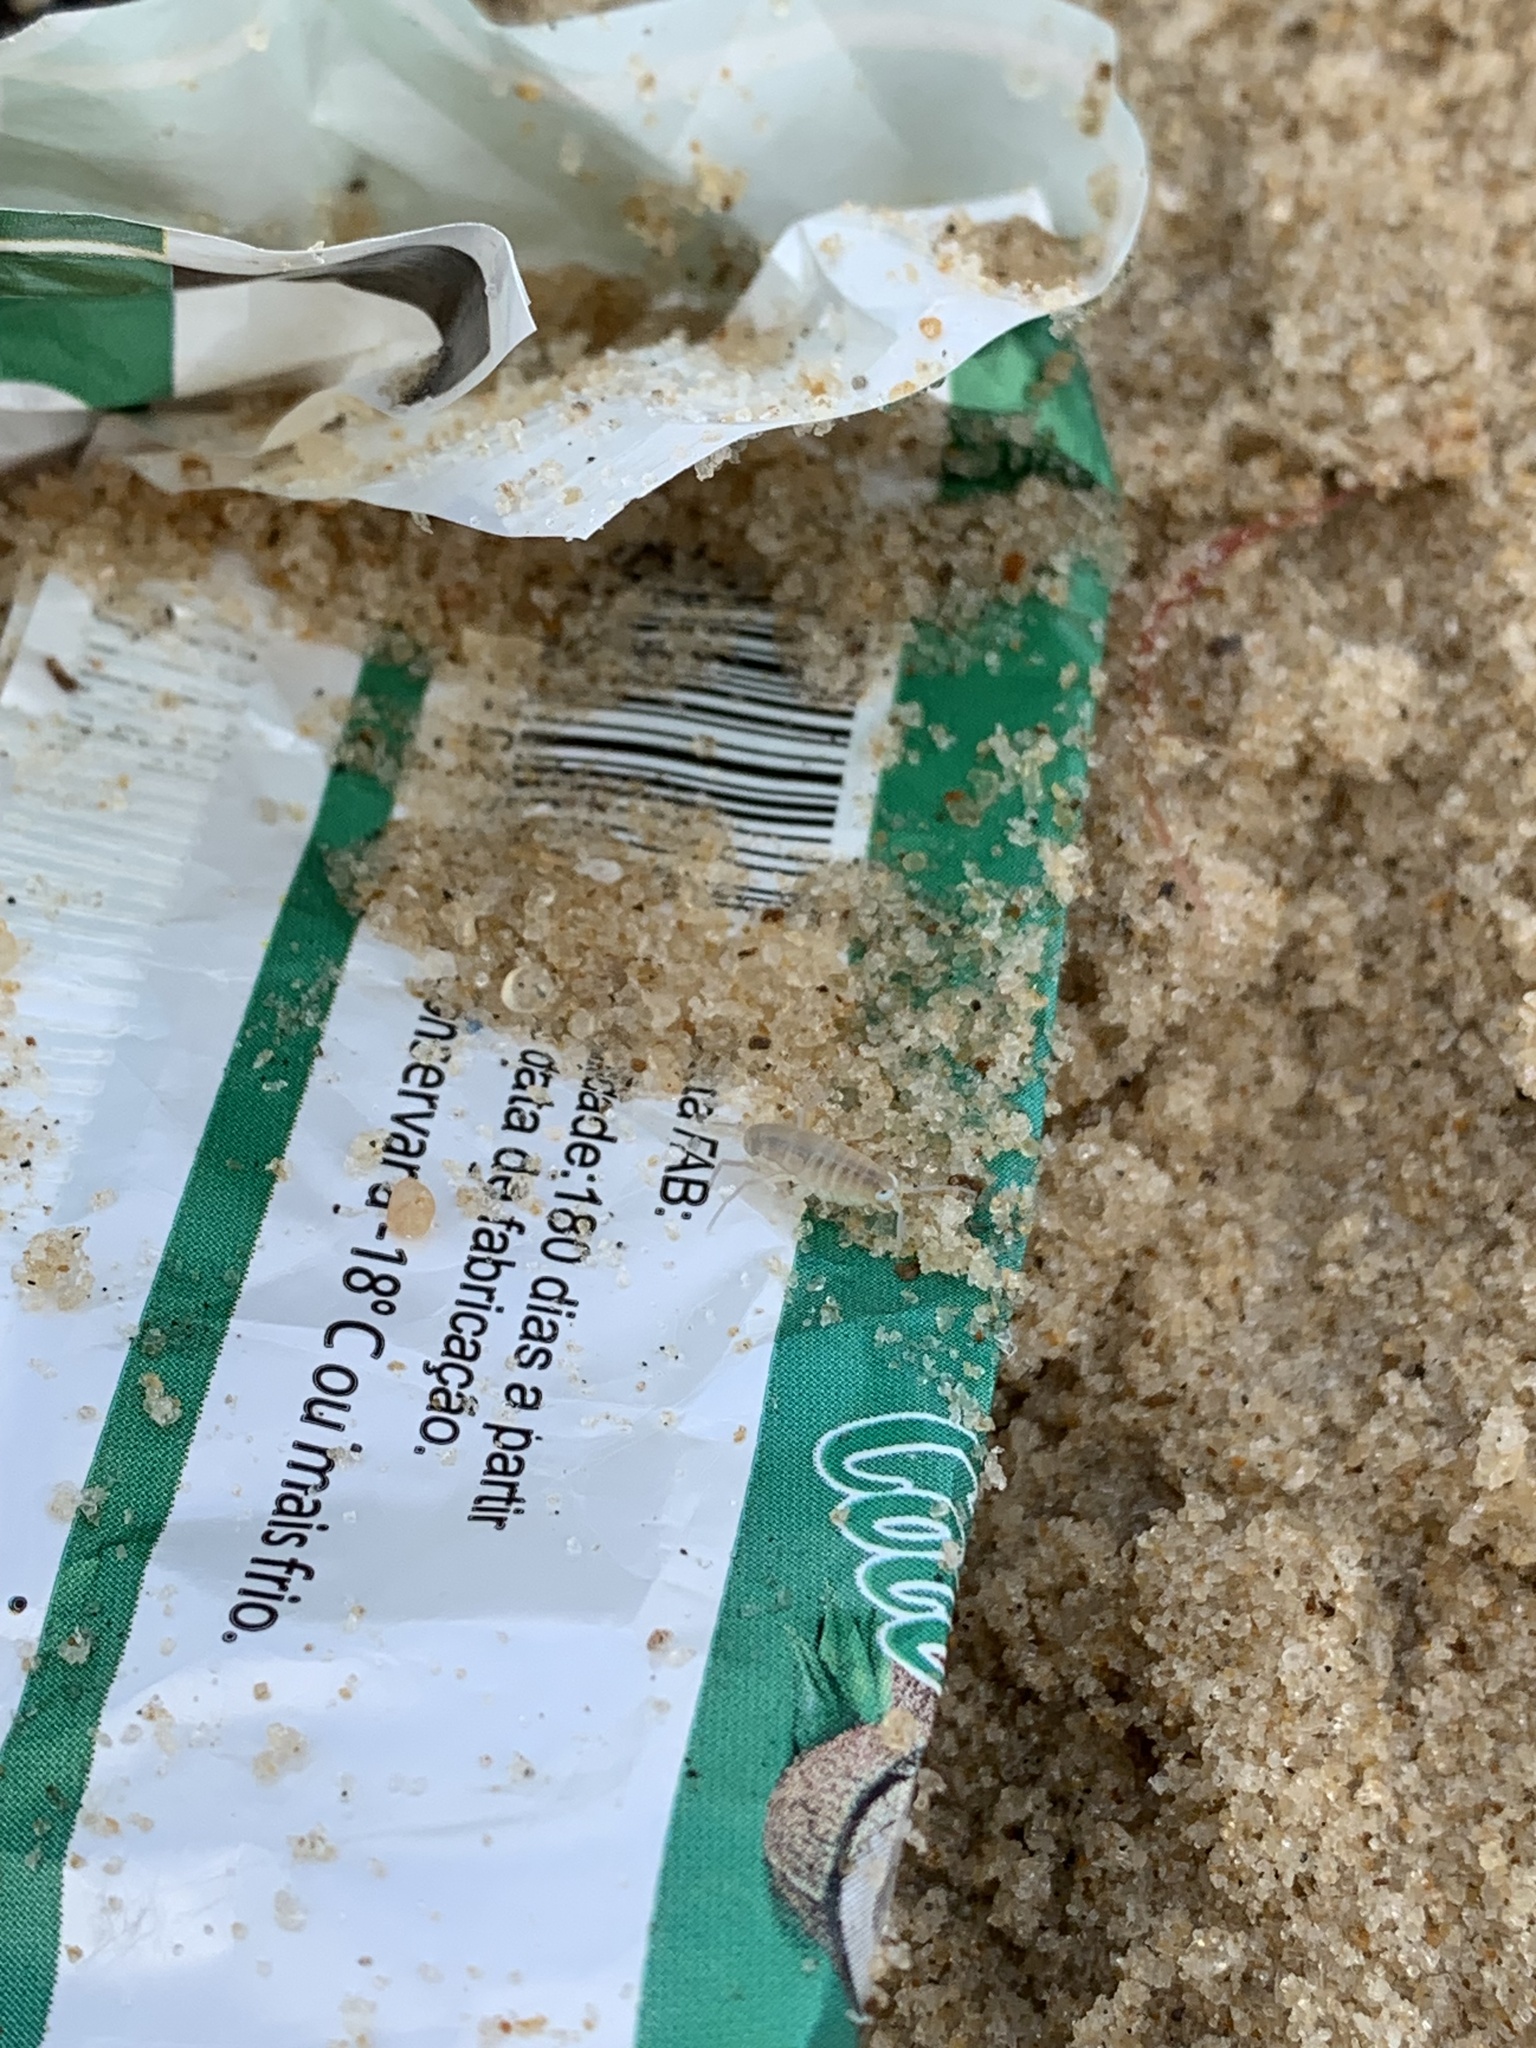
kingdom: Animalia
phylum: Arthropoda
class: Malacostraca
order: Amphipoda
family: Talitridae
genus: Talitrus
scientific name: Talitrus saltator
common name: Sand hopper
